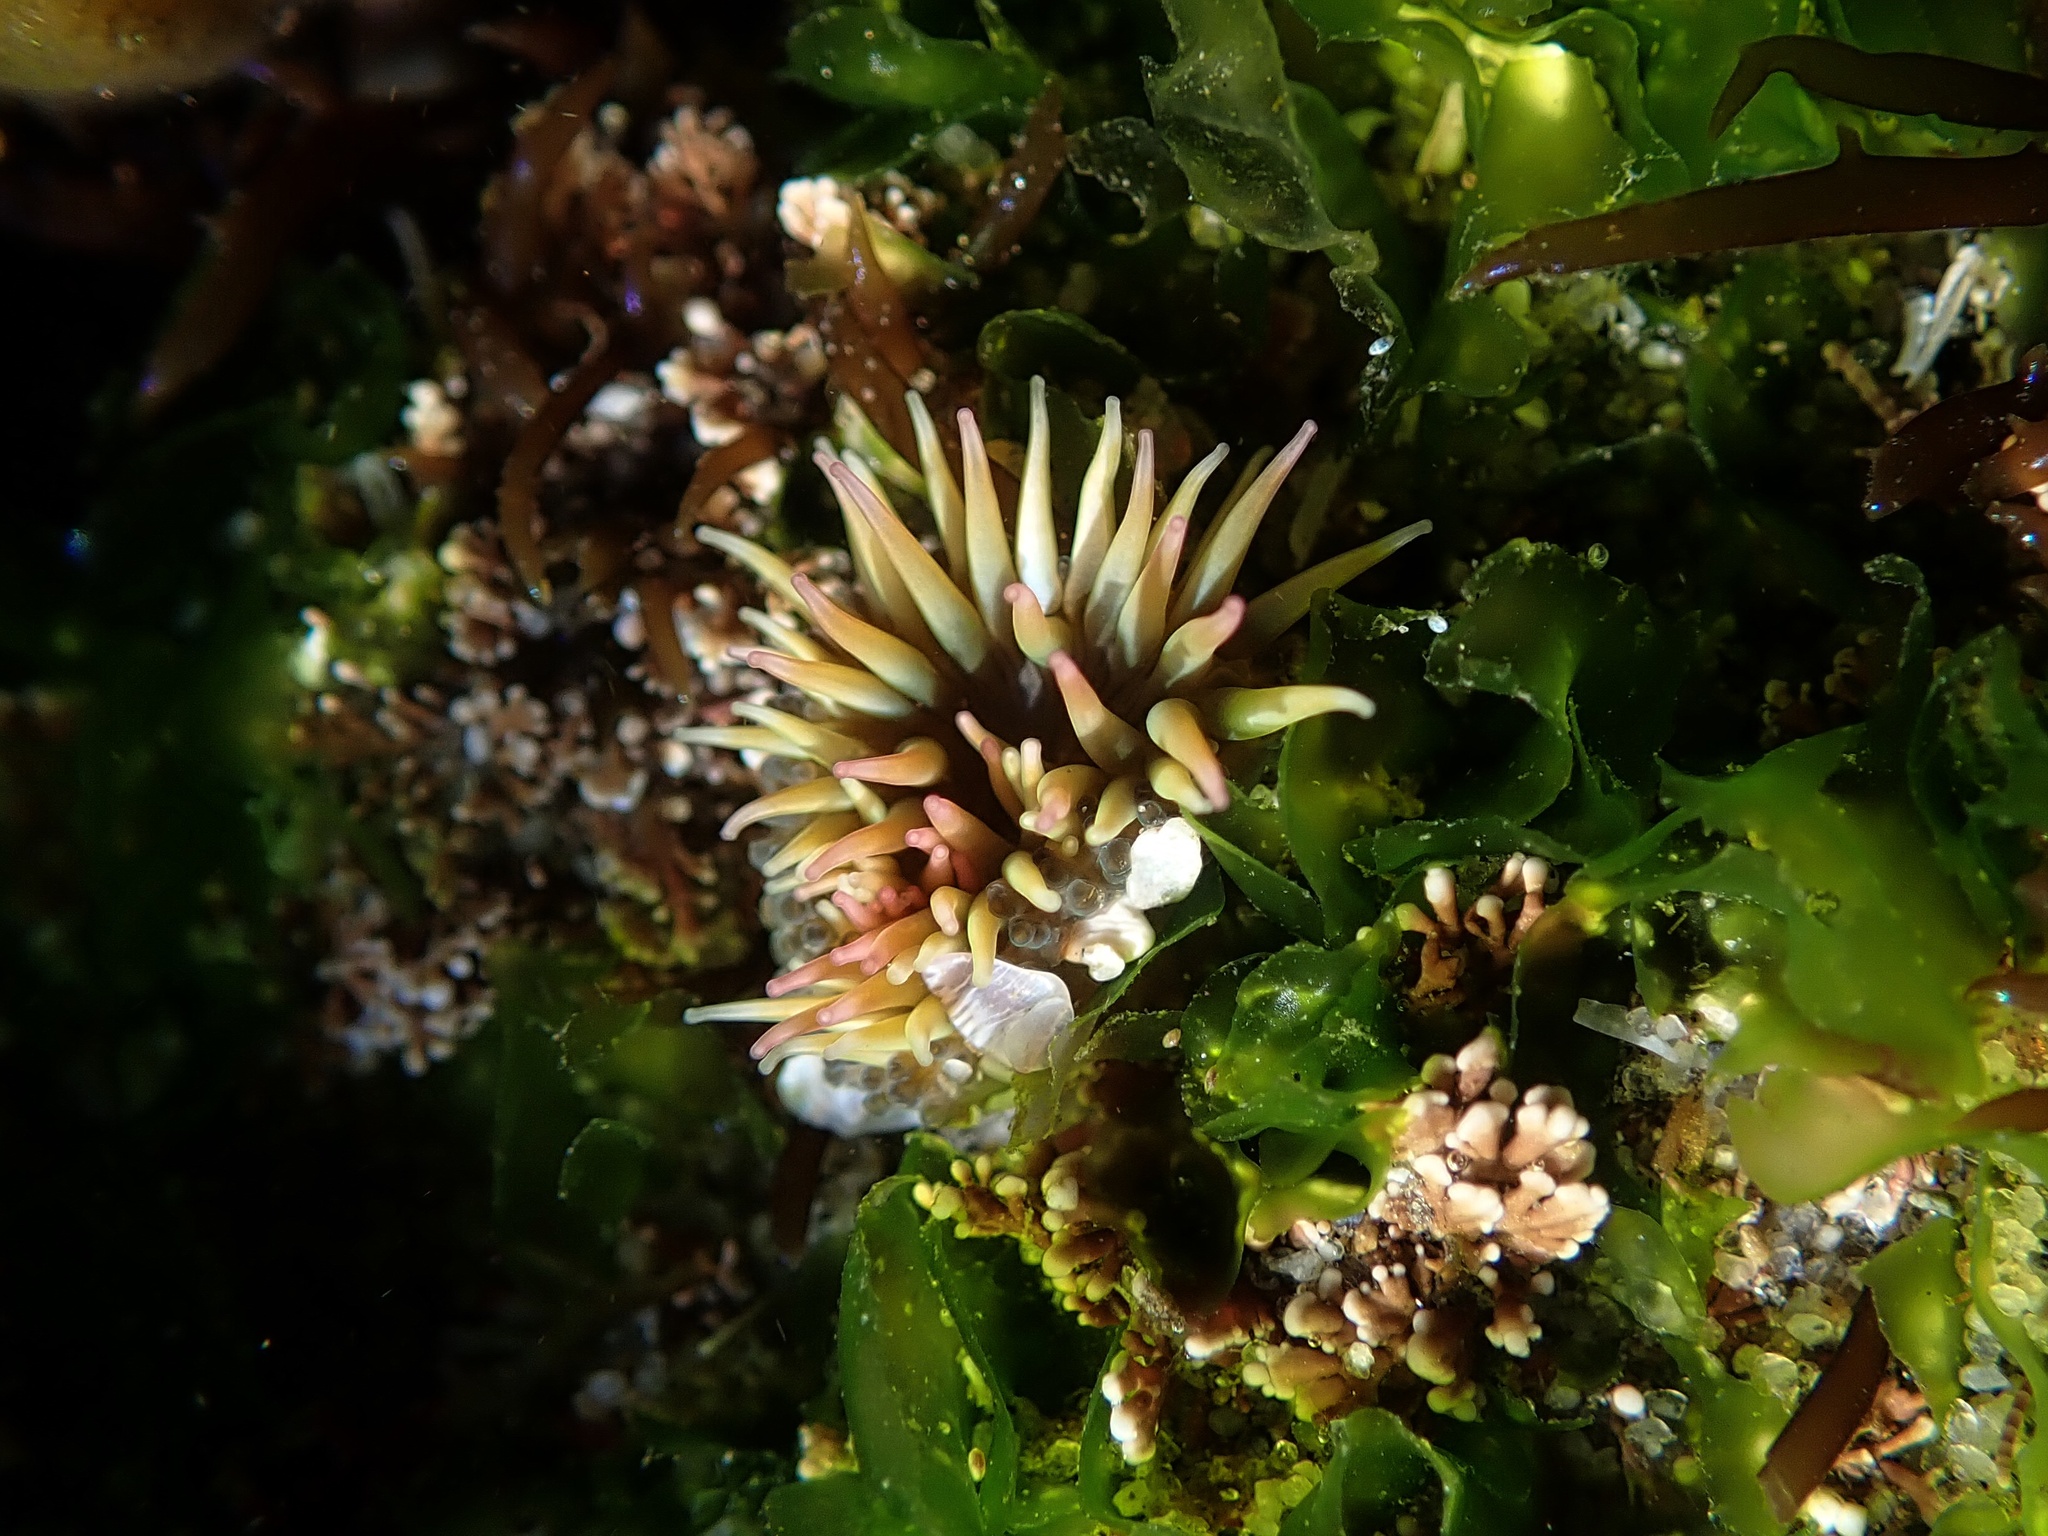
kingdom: Animalia
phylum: Cnidaria
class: Anthozoa
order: Actiniaria
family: Actiniidae
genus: Anthopleura
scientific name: Anthopleura elegantissima
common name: Clonal anemone
